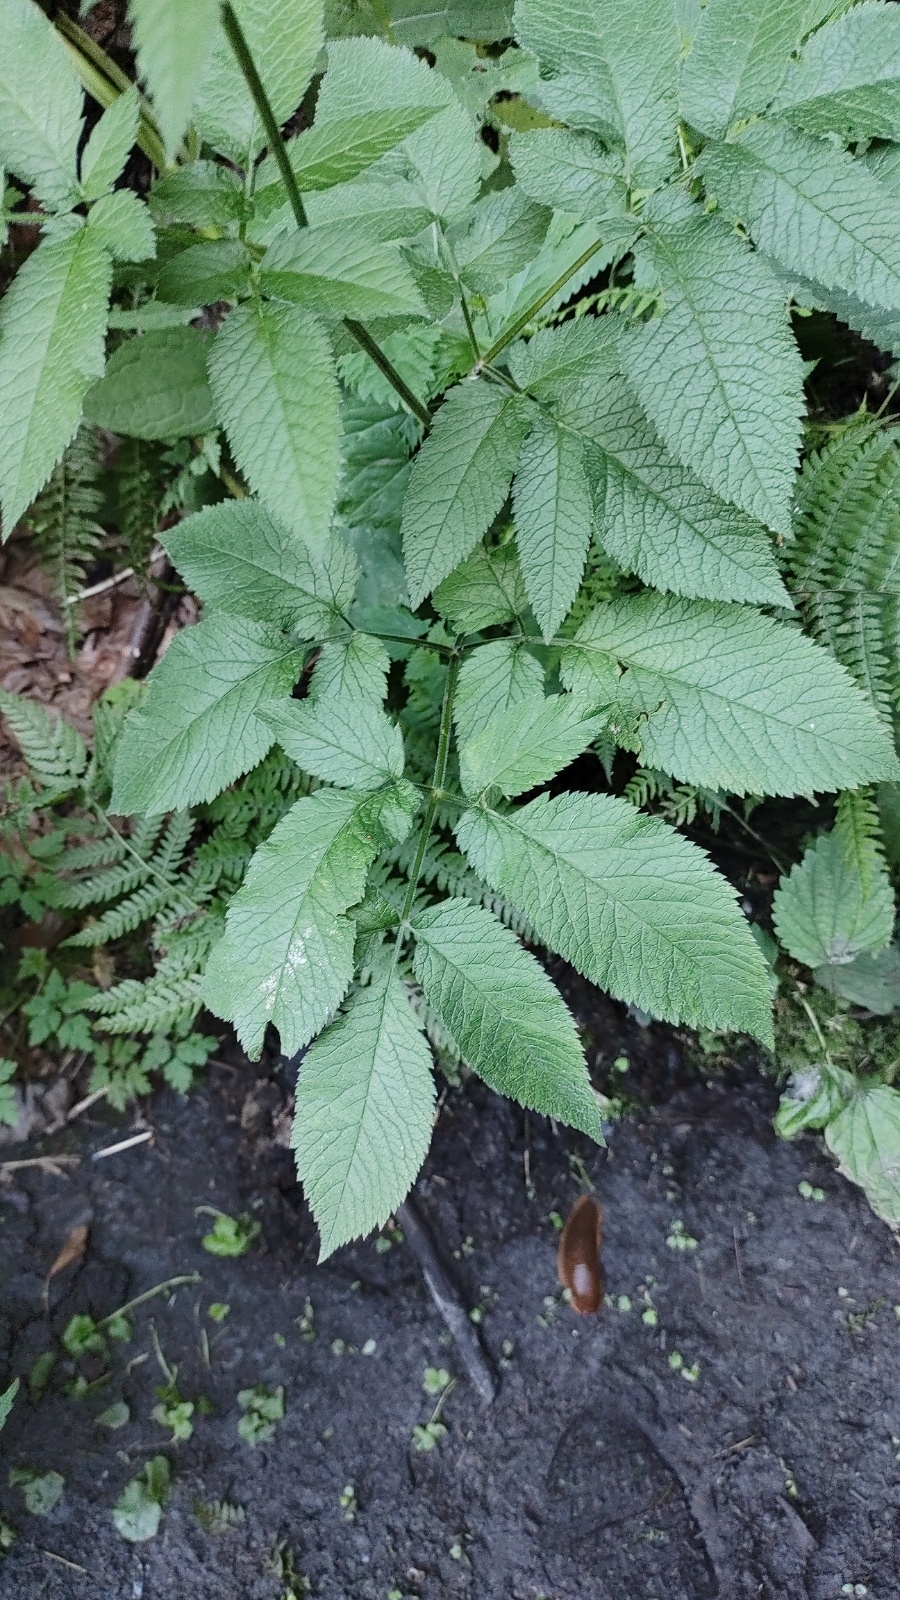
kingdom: Plantae
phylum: Tracheophyta
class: Magnoliopsida
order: Apiales
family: Apiaceae
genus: Chaerophyllum
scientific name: Chaerophyllum aromaticum
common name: Broadleaf chervil
